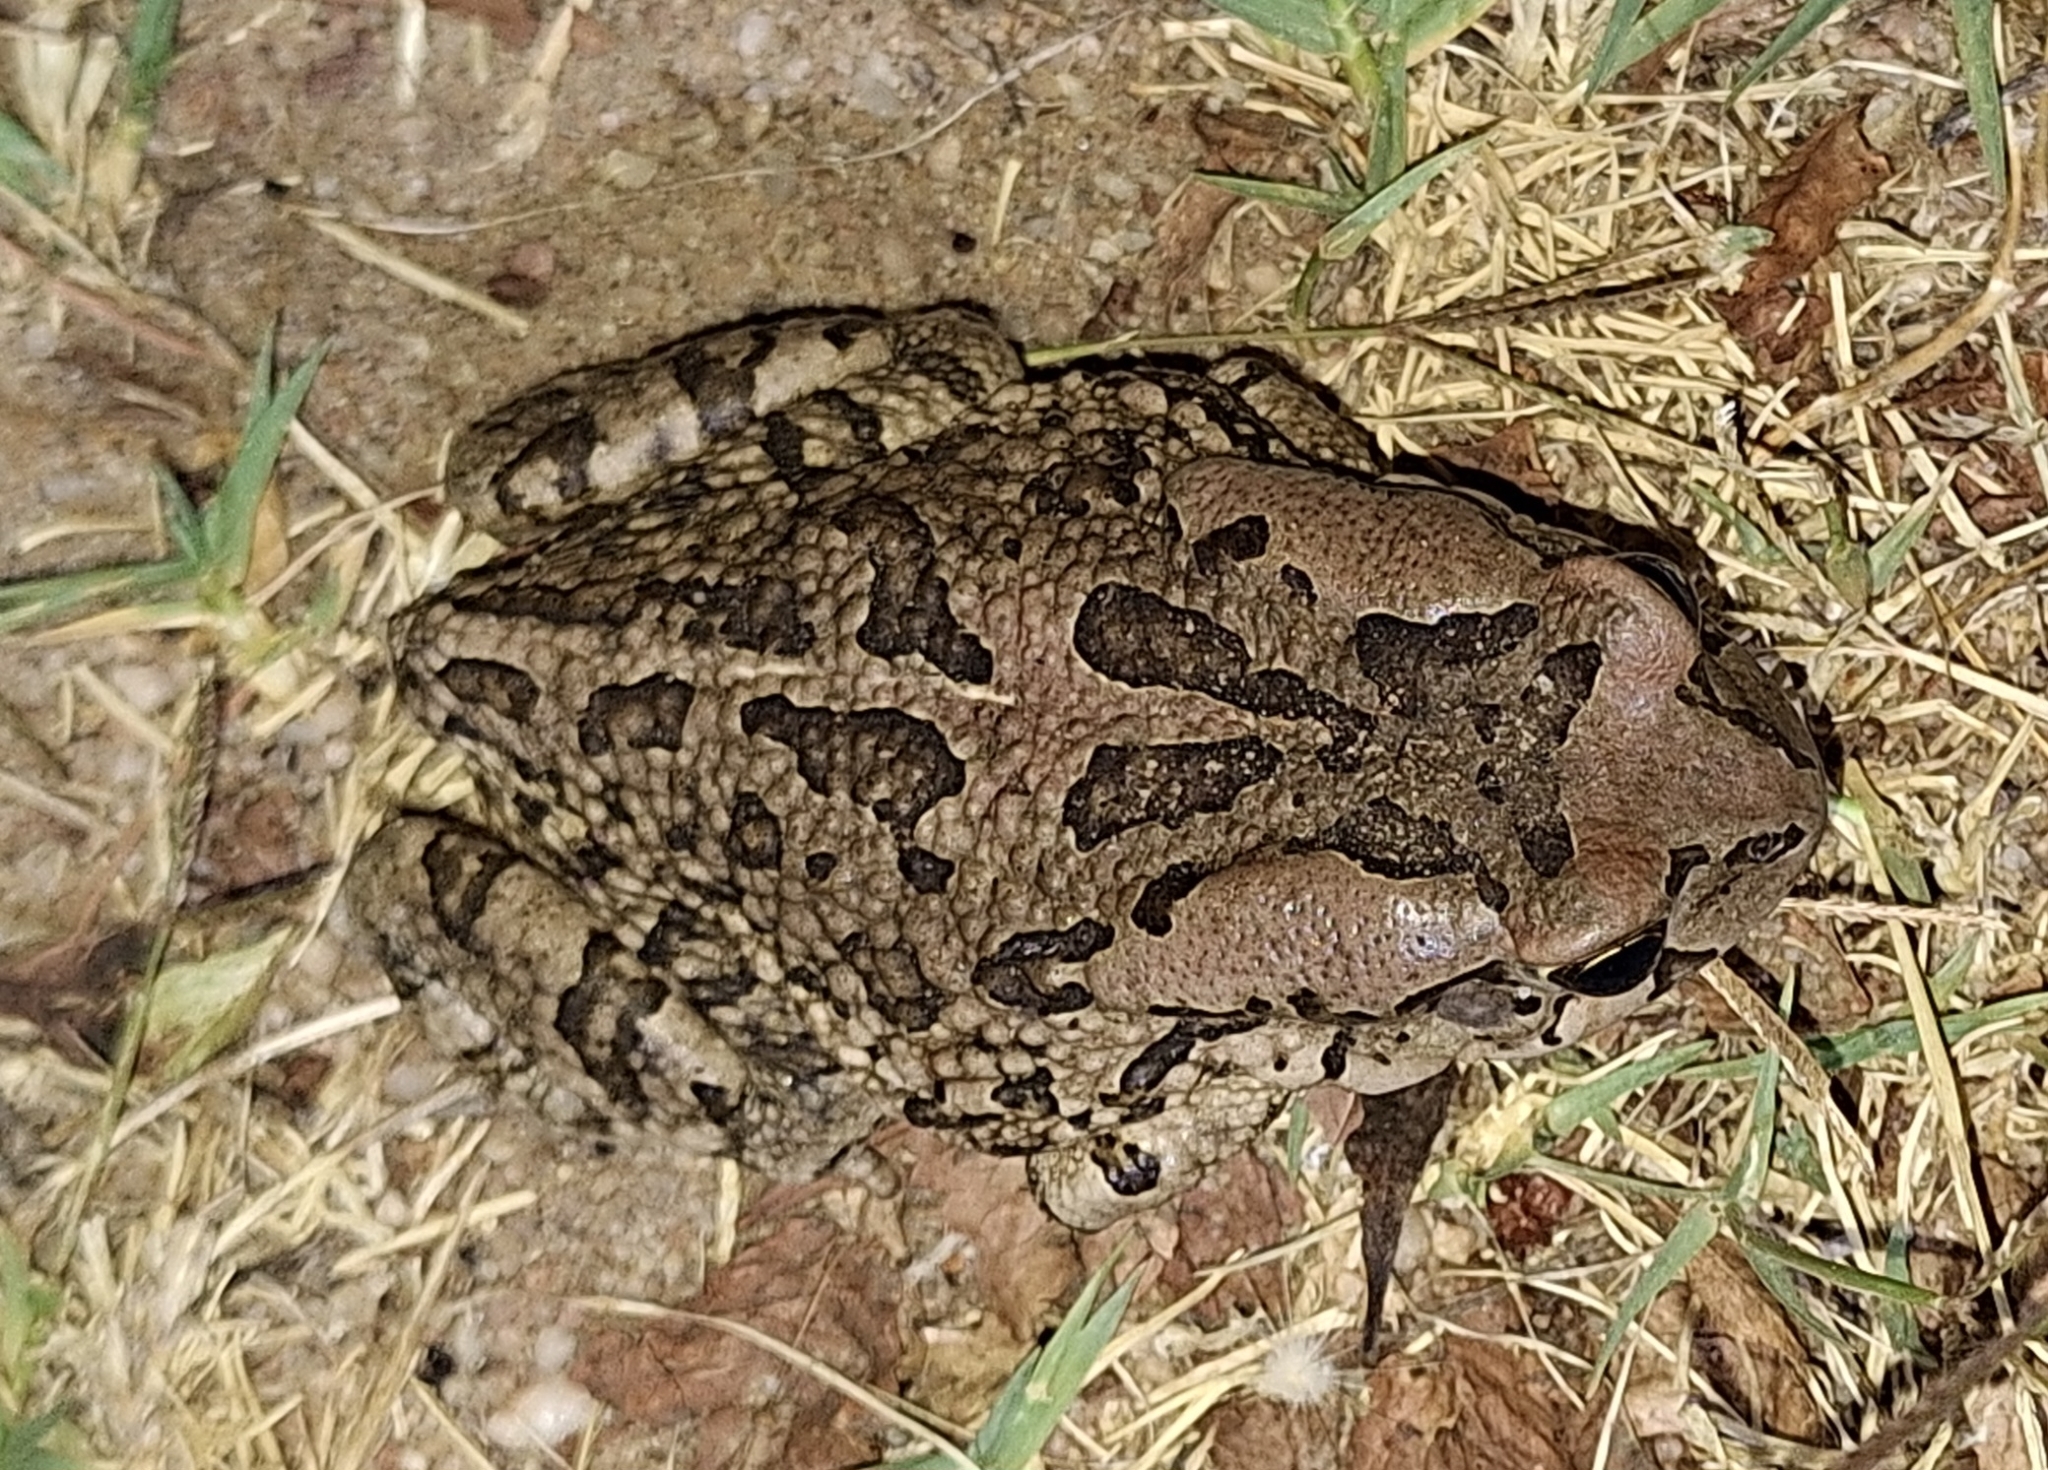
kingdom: Animalia
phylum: Chordata
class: Amphibia
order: Anura
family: Bufonidae
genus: Sclerophrys
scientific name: Sclerophrys capensis
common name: Ranger’s toad
